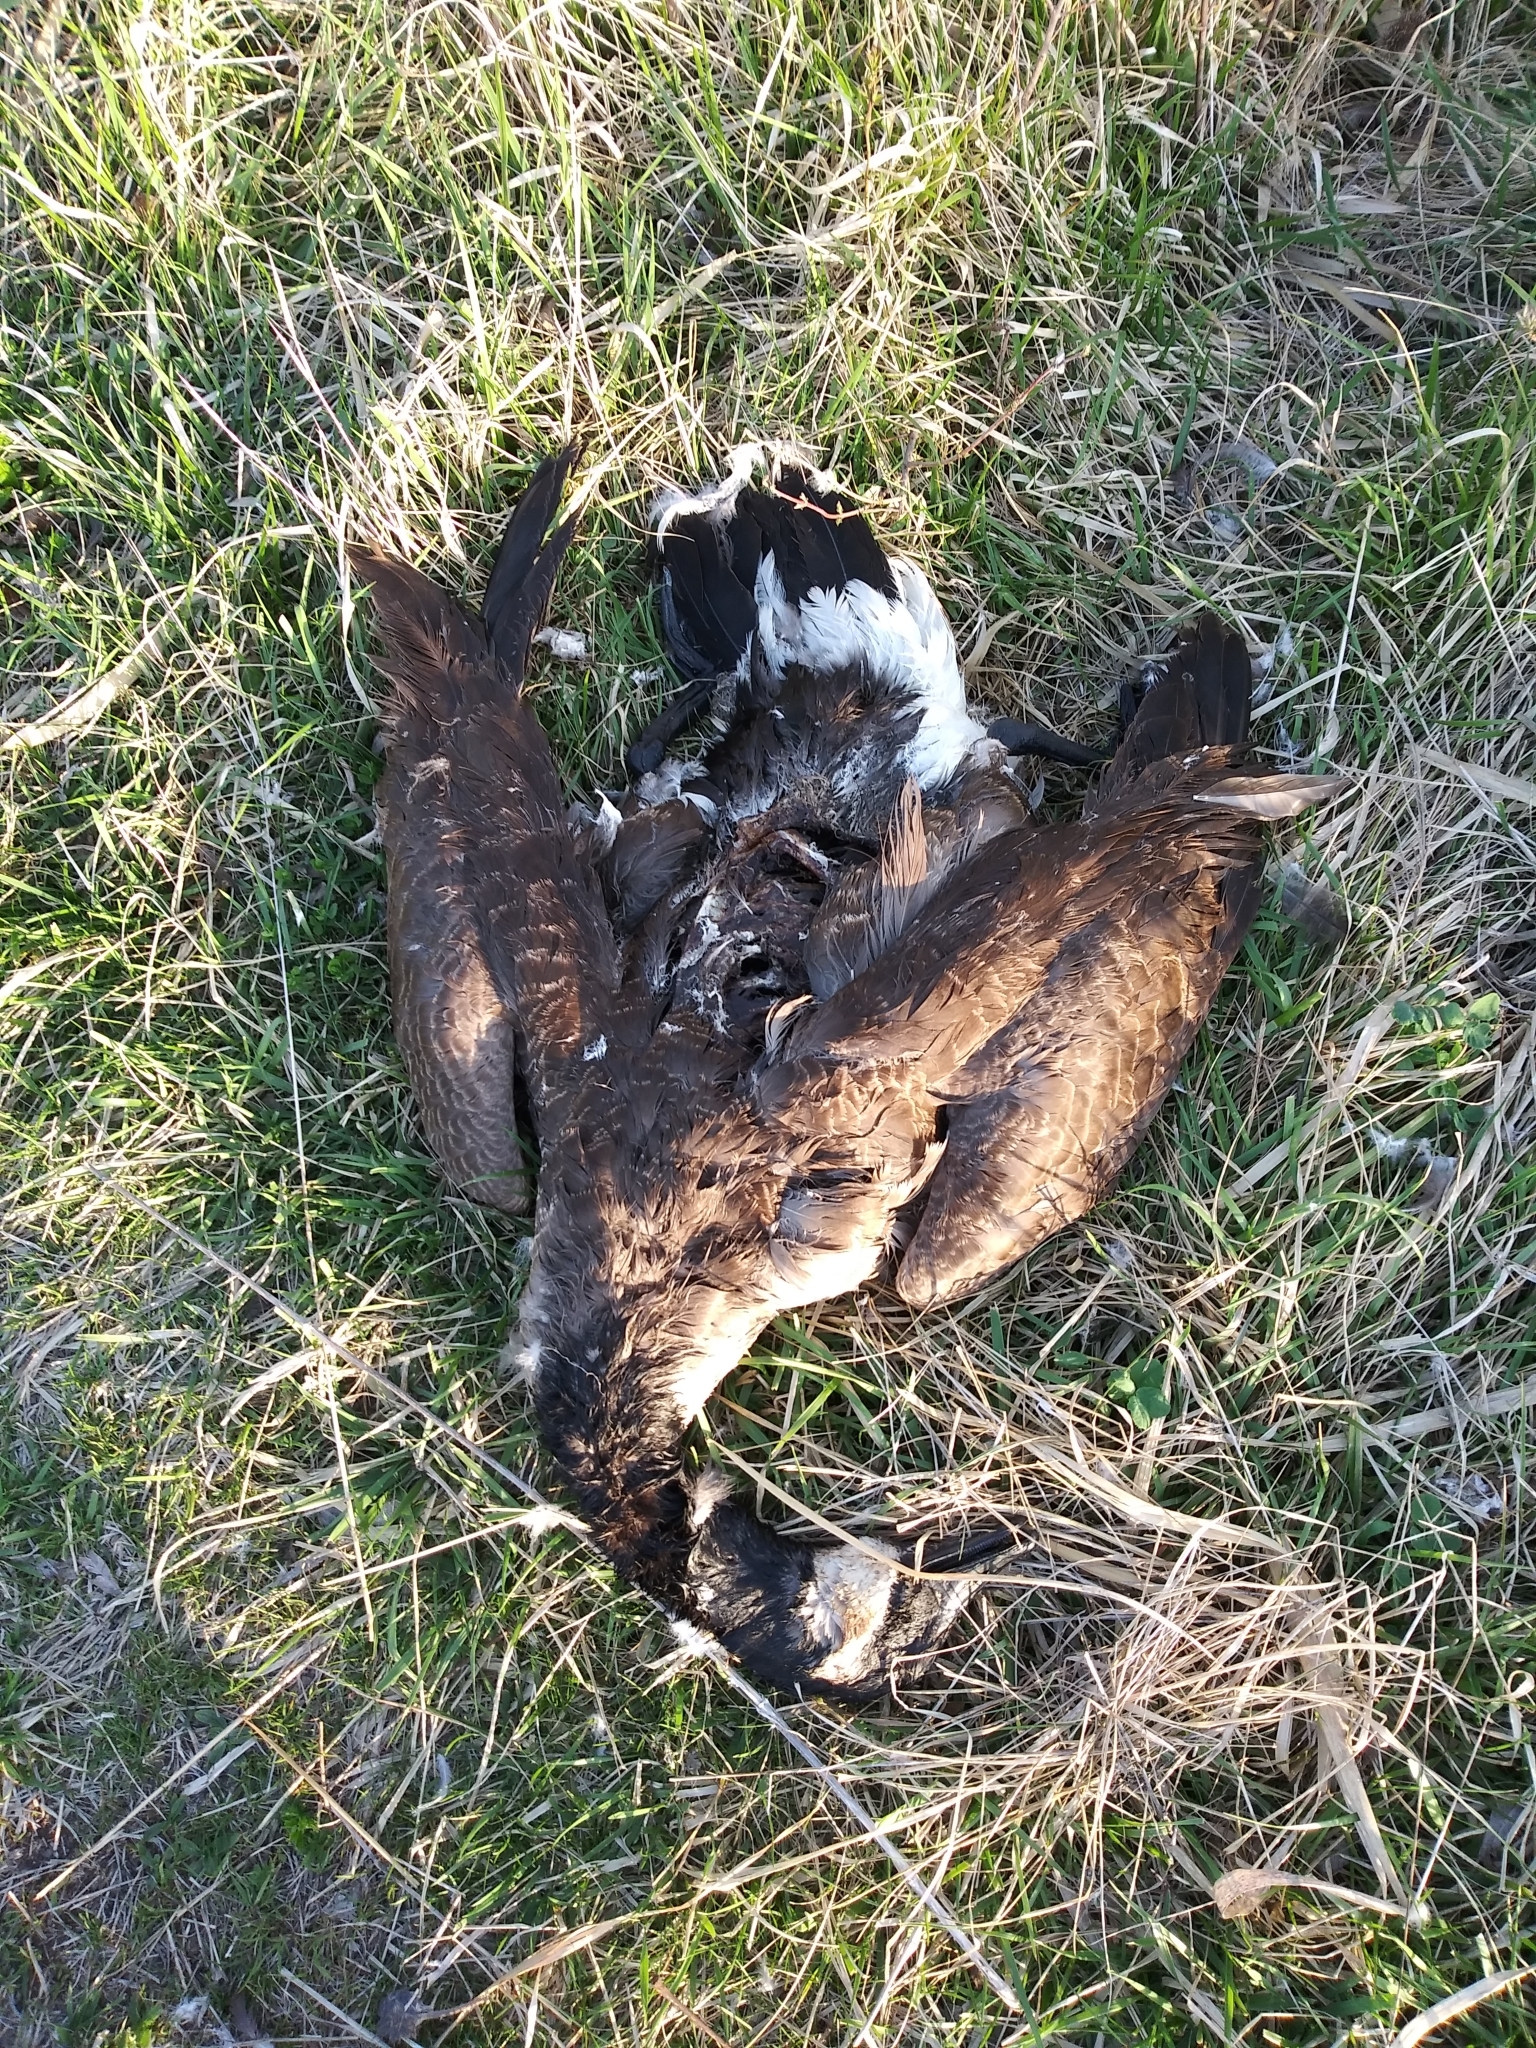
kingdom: Animalia
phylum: Chordata
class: Aves
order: Anseriformes
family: Anatidae
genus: Branta
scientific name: Branta canadensis
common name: Canada goose
